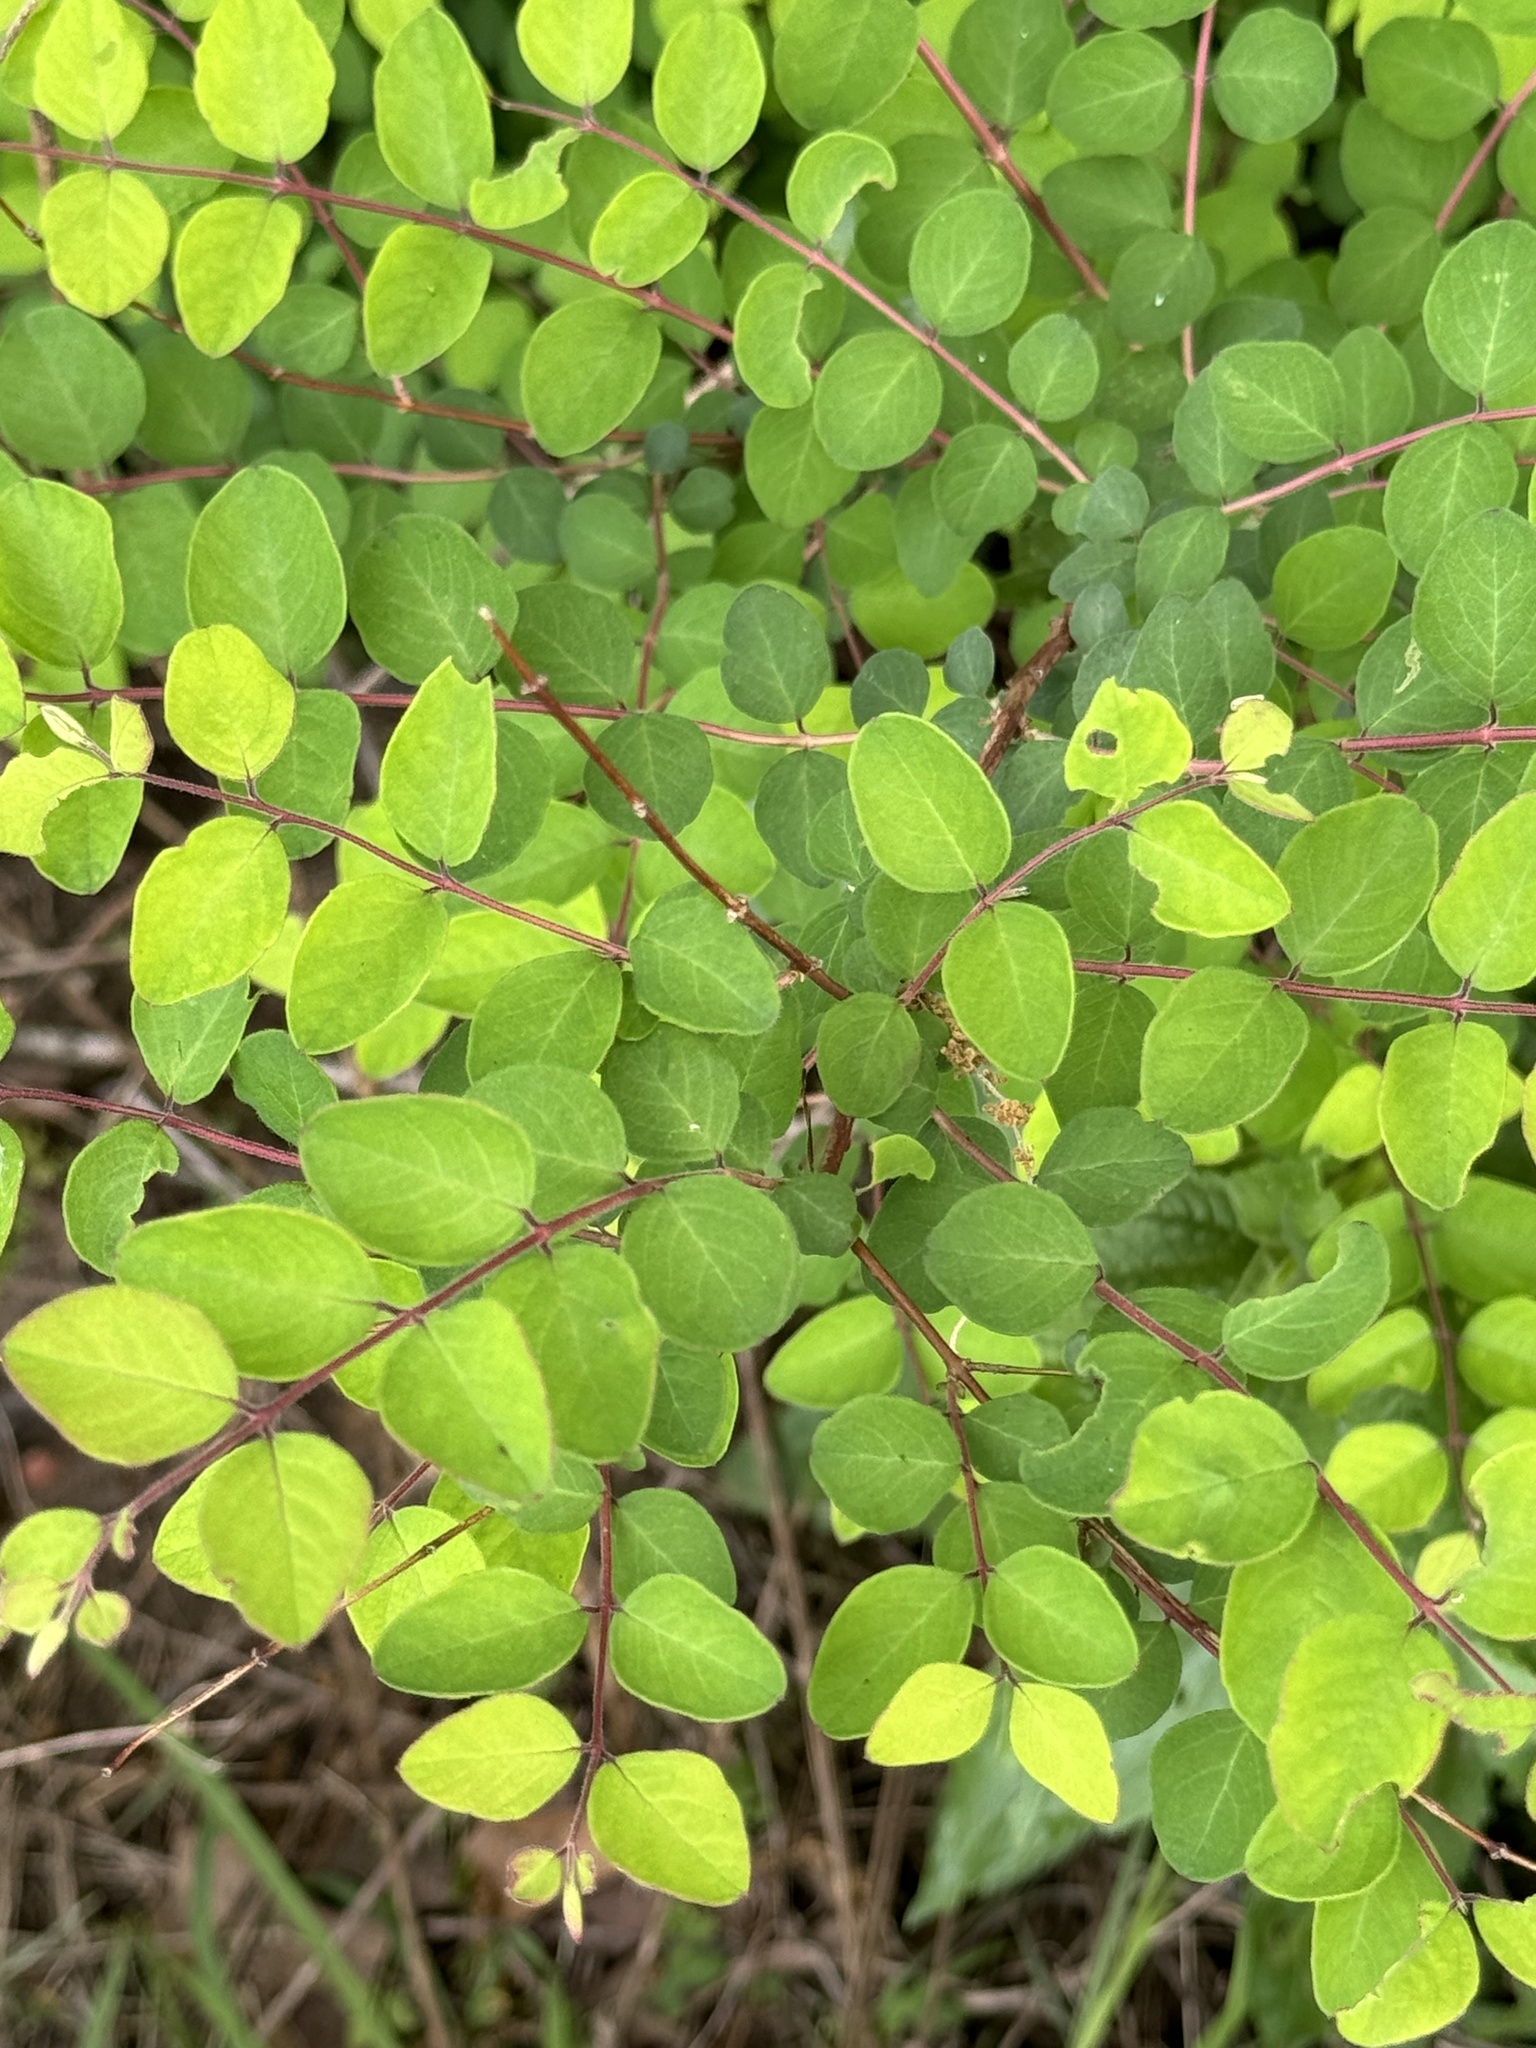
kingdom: Plantae
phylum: Tracheophyta
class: Magnoliopsida
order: Dipsacales
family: Caprifoliaceae
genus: Symphoricarpos
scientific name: Symphoricarpos orbiculatus
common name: Coralberry
